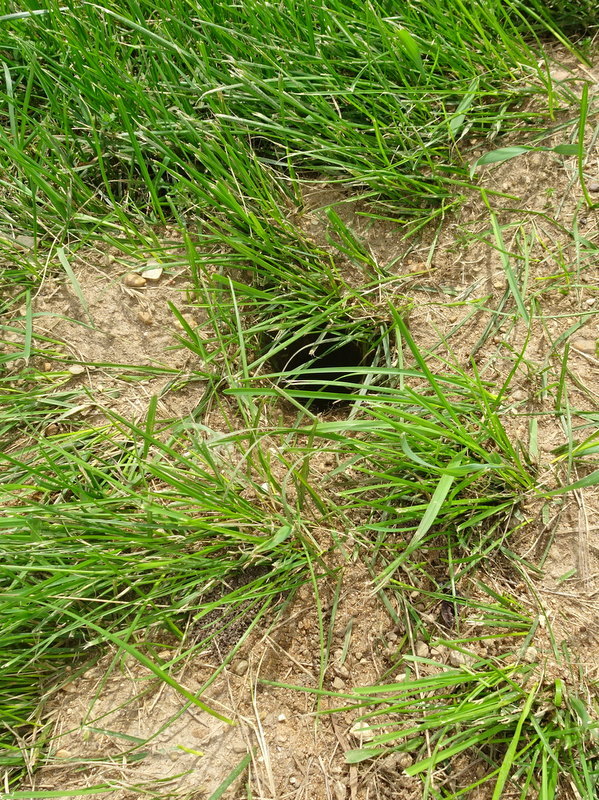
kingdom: Animalia
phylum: Chordata
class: Mammalia
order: Rodentia
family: Sciuridae
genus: Ictidomys
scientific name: Ictidomys tridecemlineatus
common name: Thirteen-lined ground squirrel
